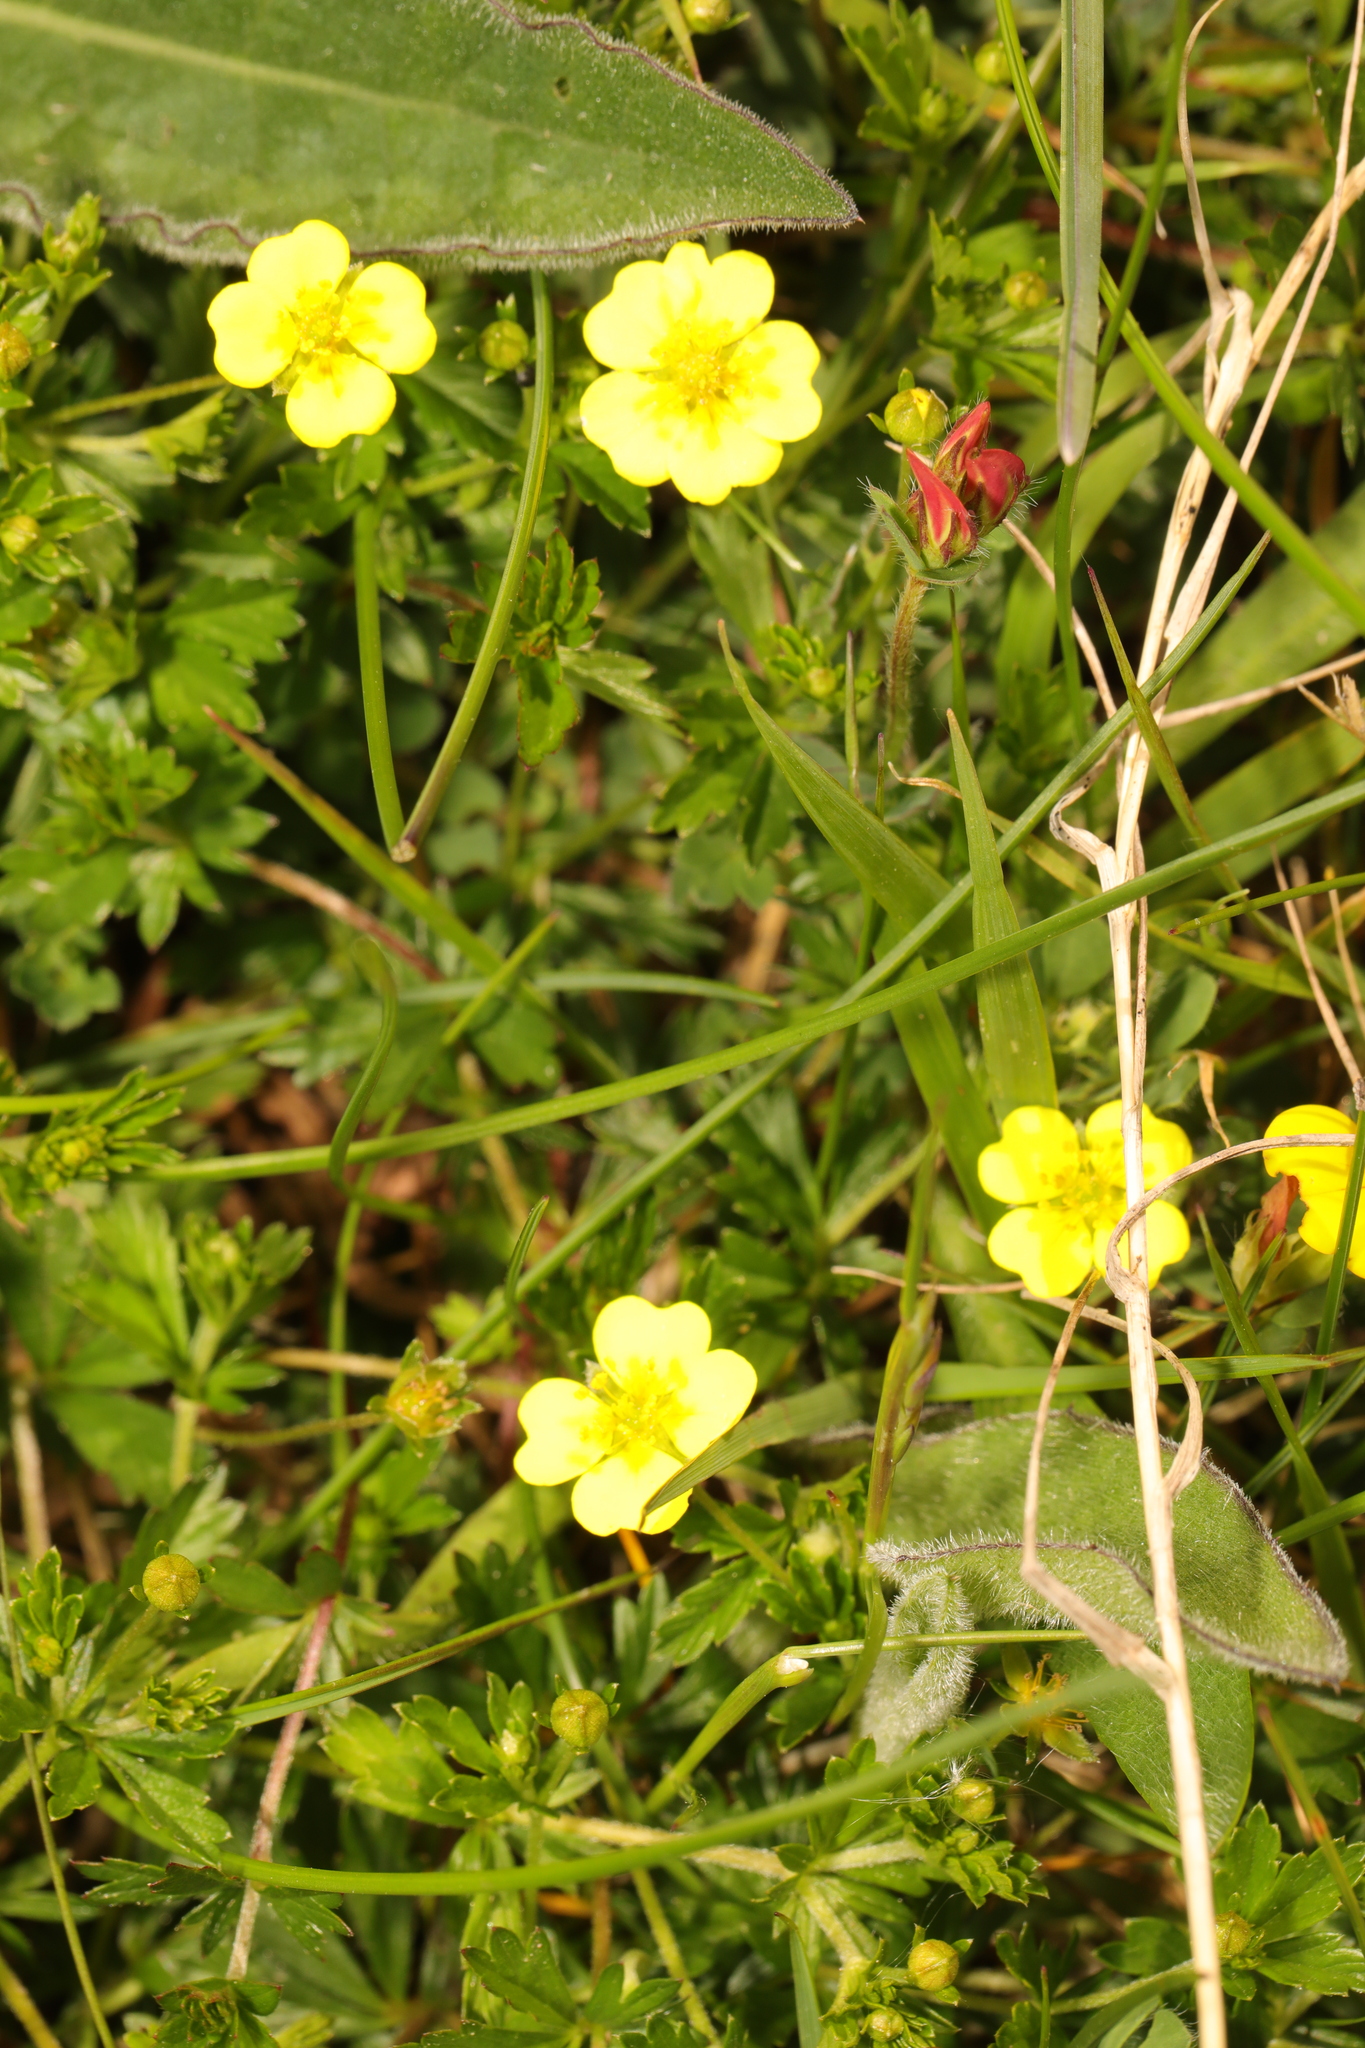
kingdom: Plantae
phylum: Tracheophyta
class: Magnoliopsida
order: Rosales
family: Rosaceae
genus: Potentilla
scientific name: Potentilla erecta
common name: Tormentil
